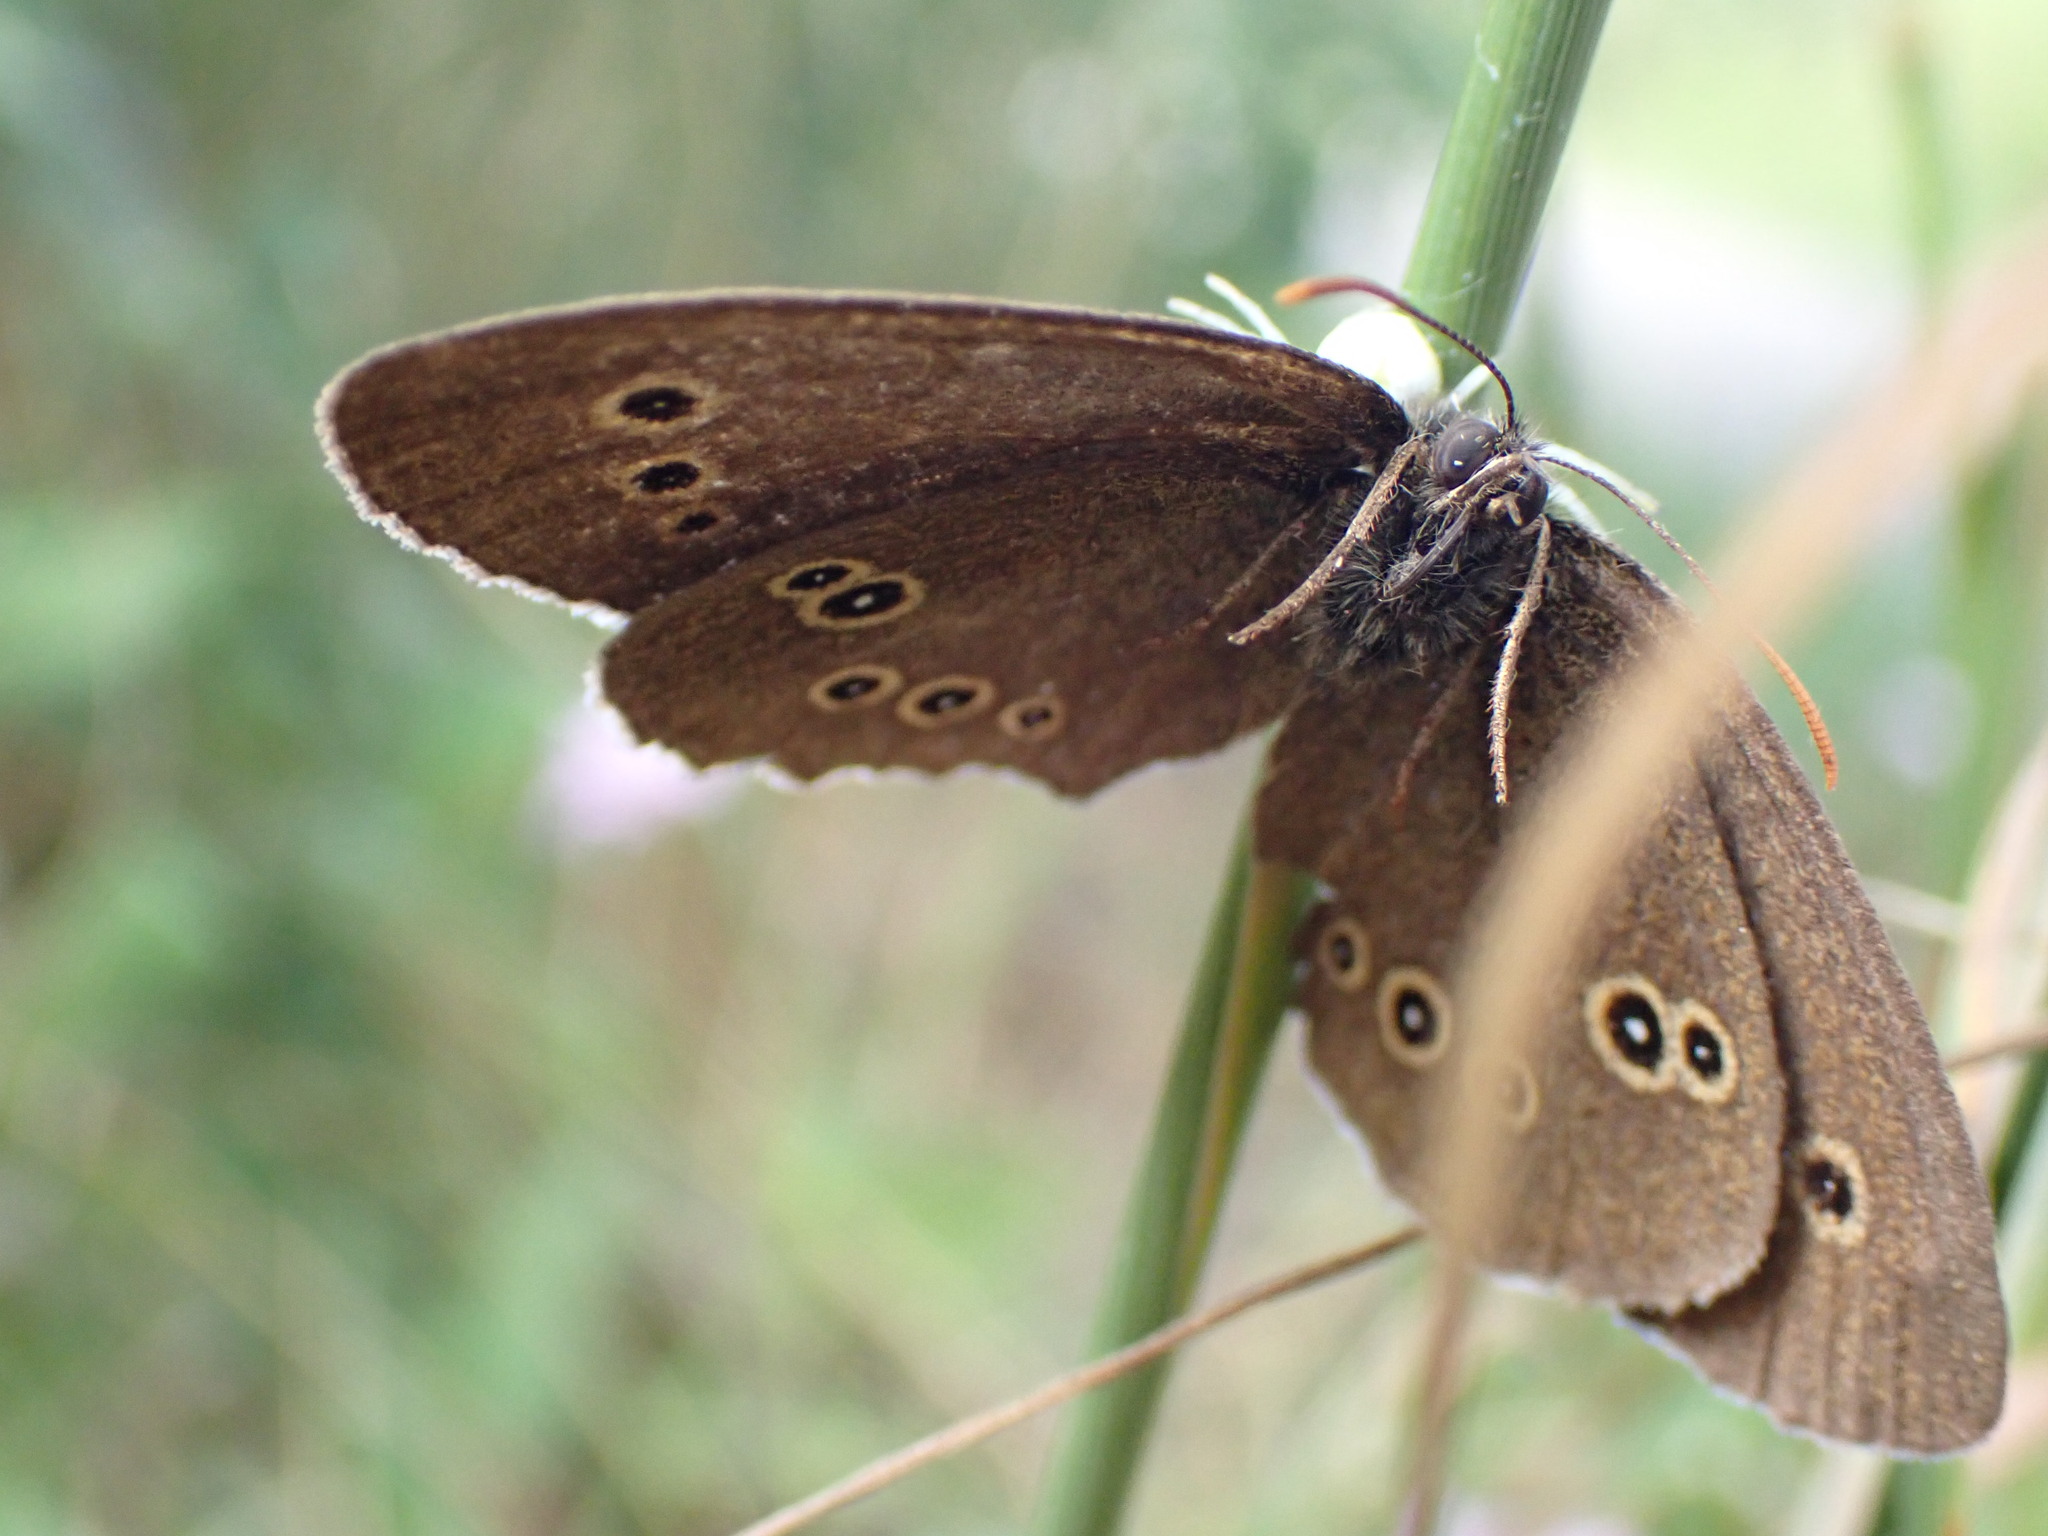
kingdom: Animalia
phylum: Arthropoda
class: Arachnida
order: Araneae
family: Thomisidae
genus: Misumena
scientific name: Misumena vatia
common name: Goldenrod crab spider
